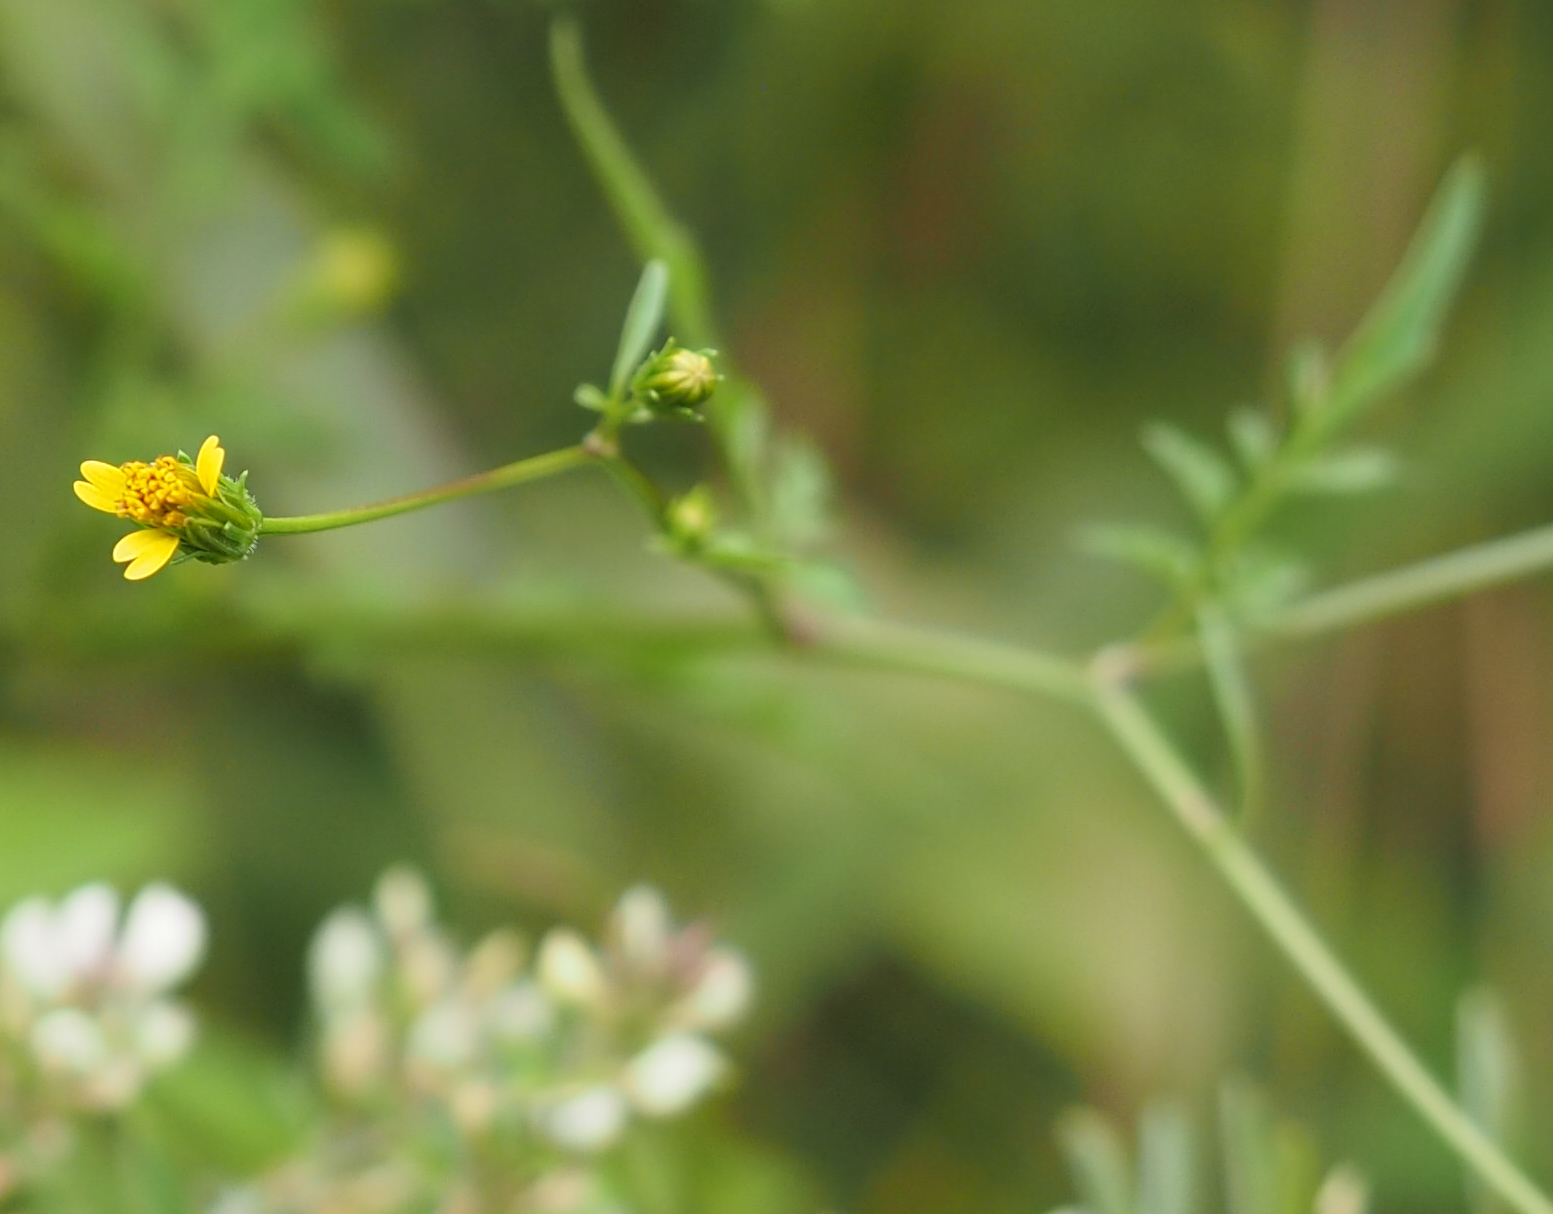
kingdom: Plantae
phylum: Tracheophyta
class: Magnoliopsida
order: Asterales
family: Asteraceae
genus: Bidens
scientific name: Bidens bipinnata
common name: Spanish-needles
